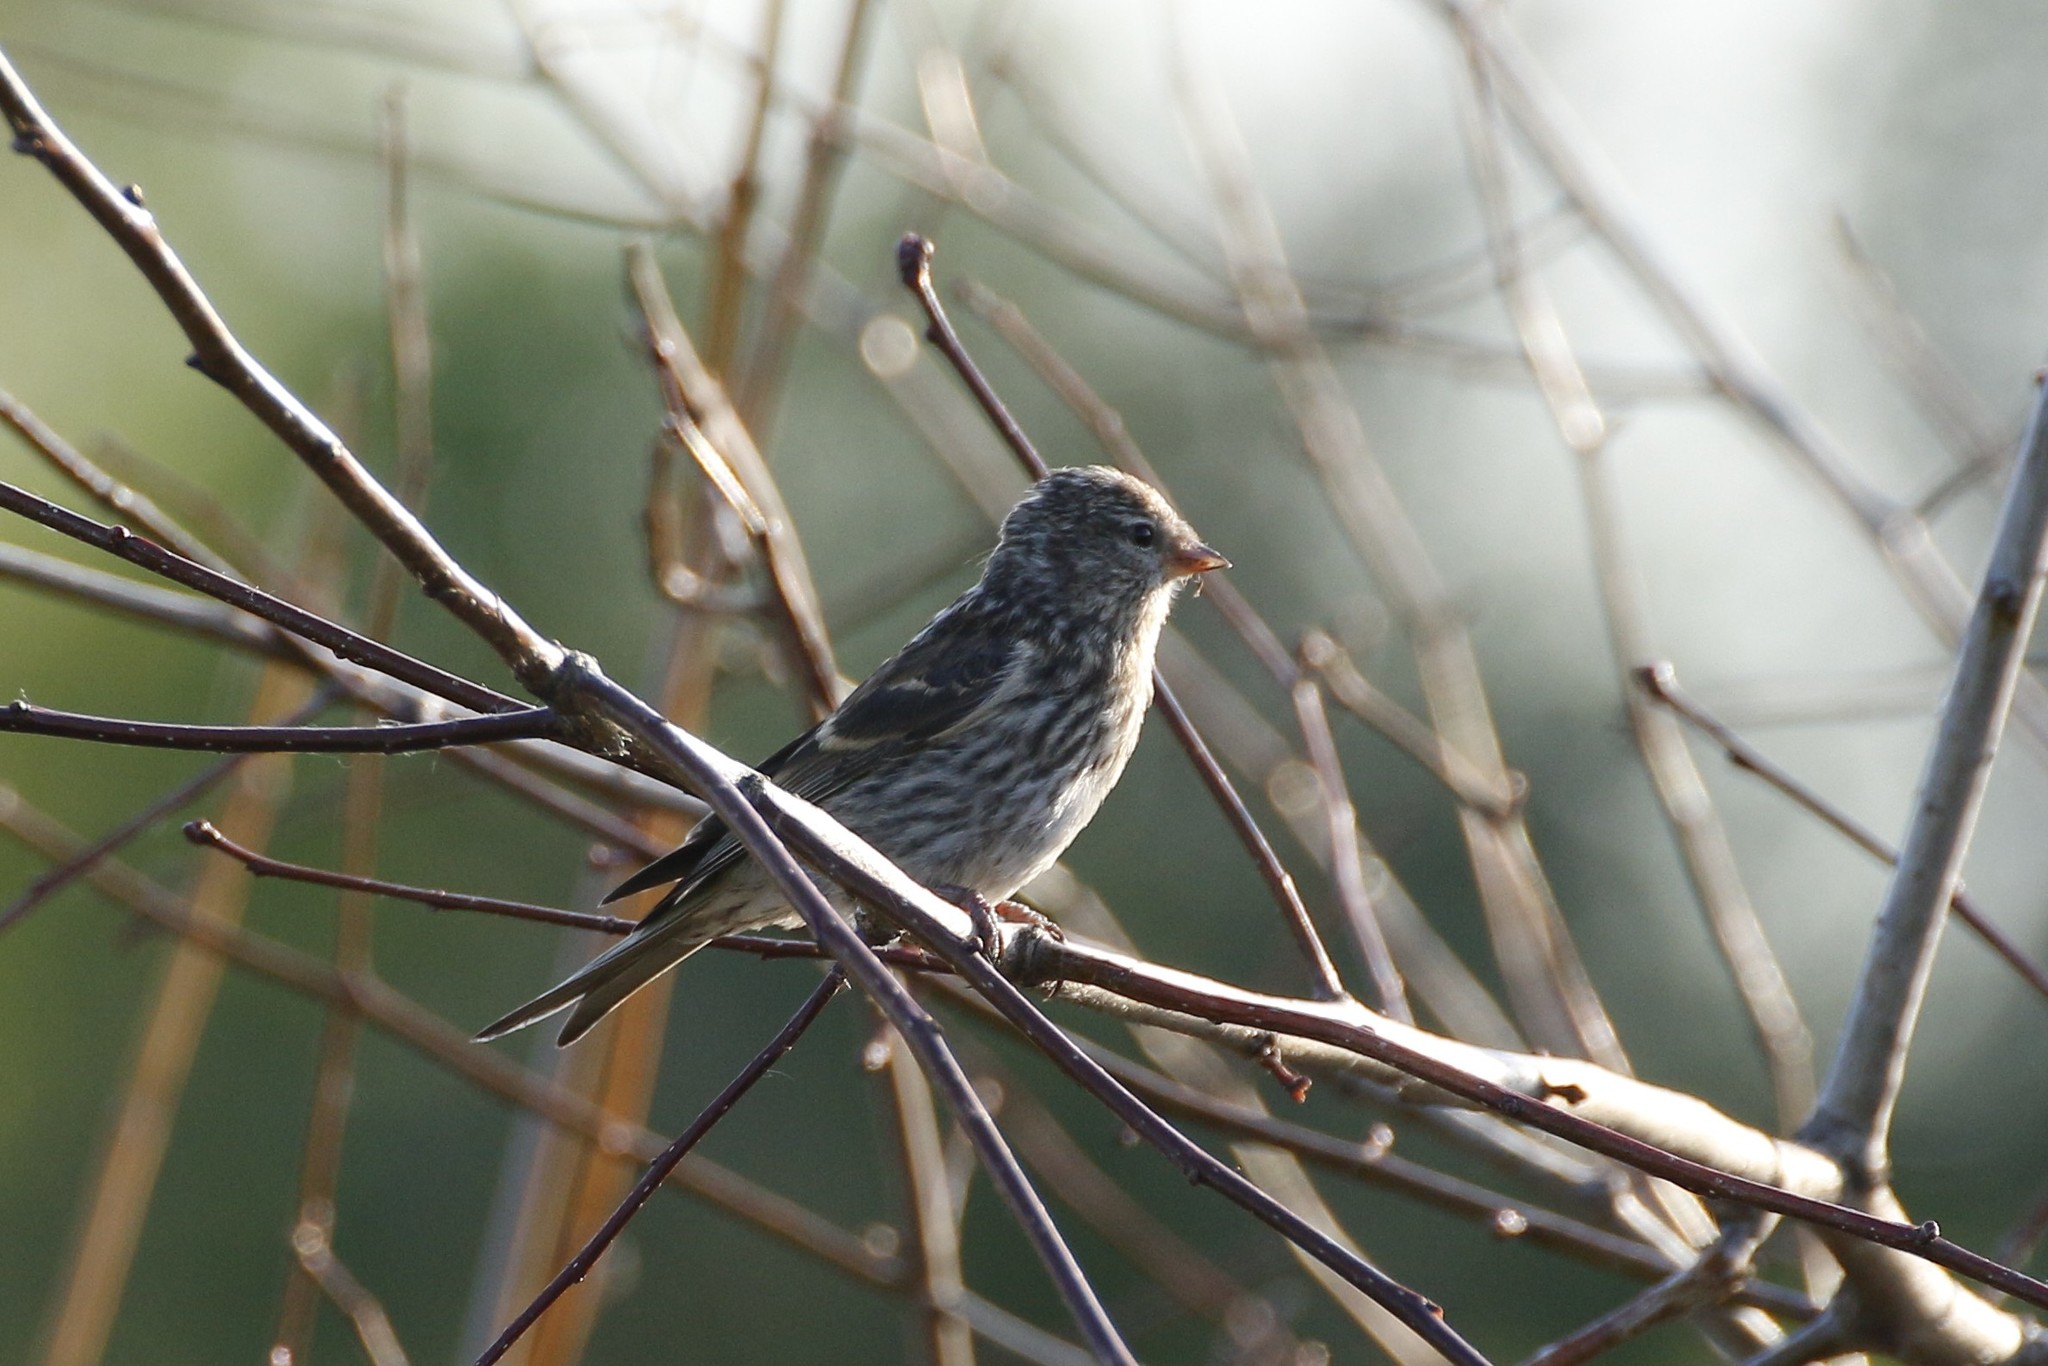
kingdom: Animalia
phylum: Chordata
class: Aves
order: Passeriformes
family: Fringillidae
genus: Spinus
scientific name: Spinus spinus
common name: Eurasian siskin
